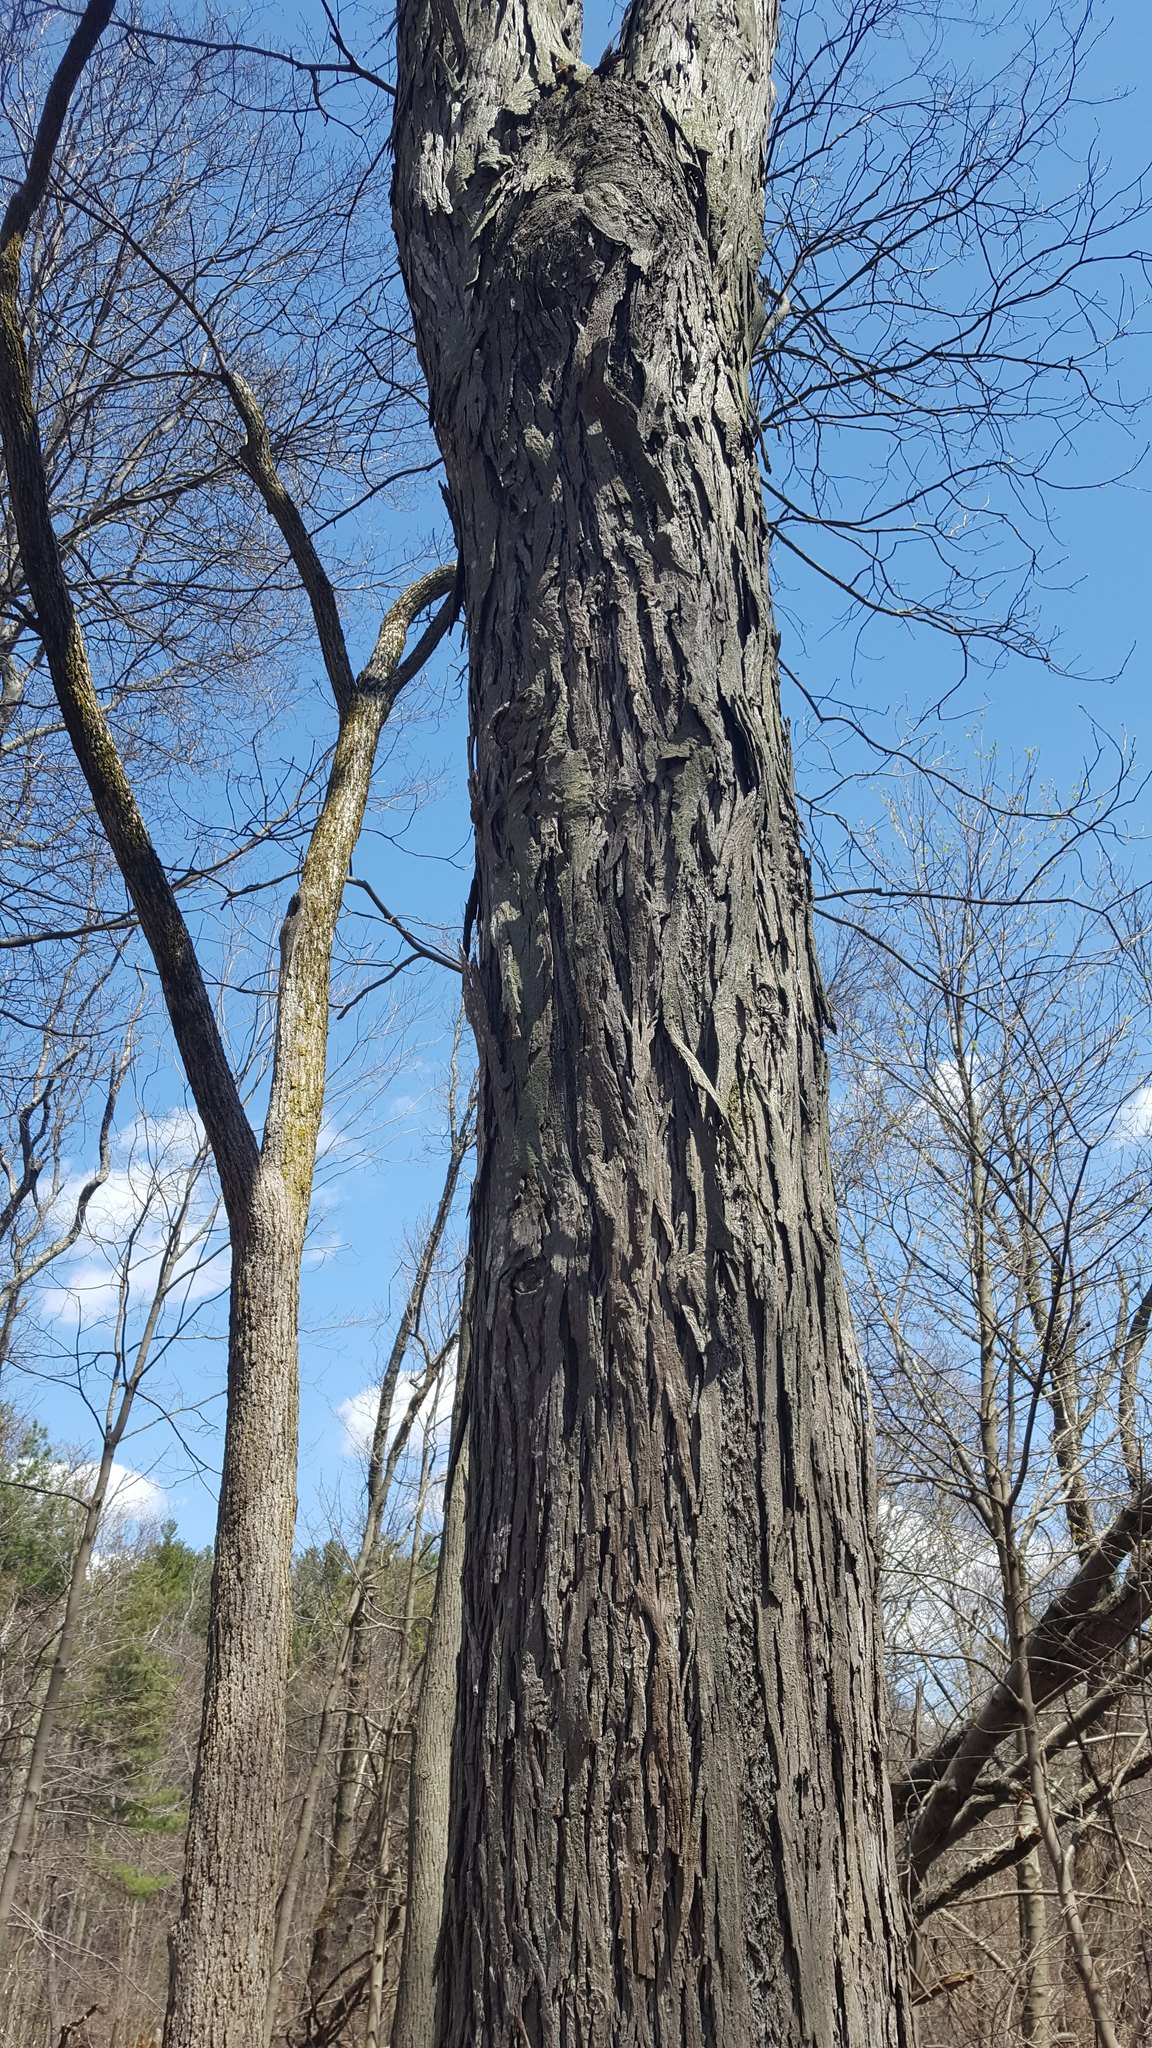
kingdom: Plantae
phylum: Tracheophyta
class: Magnoliopsida
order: Fagales
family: Juglandaceae
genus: Carya
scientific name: Carya ovata
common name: Shagbark hickory
